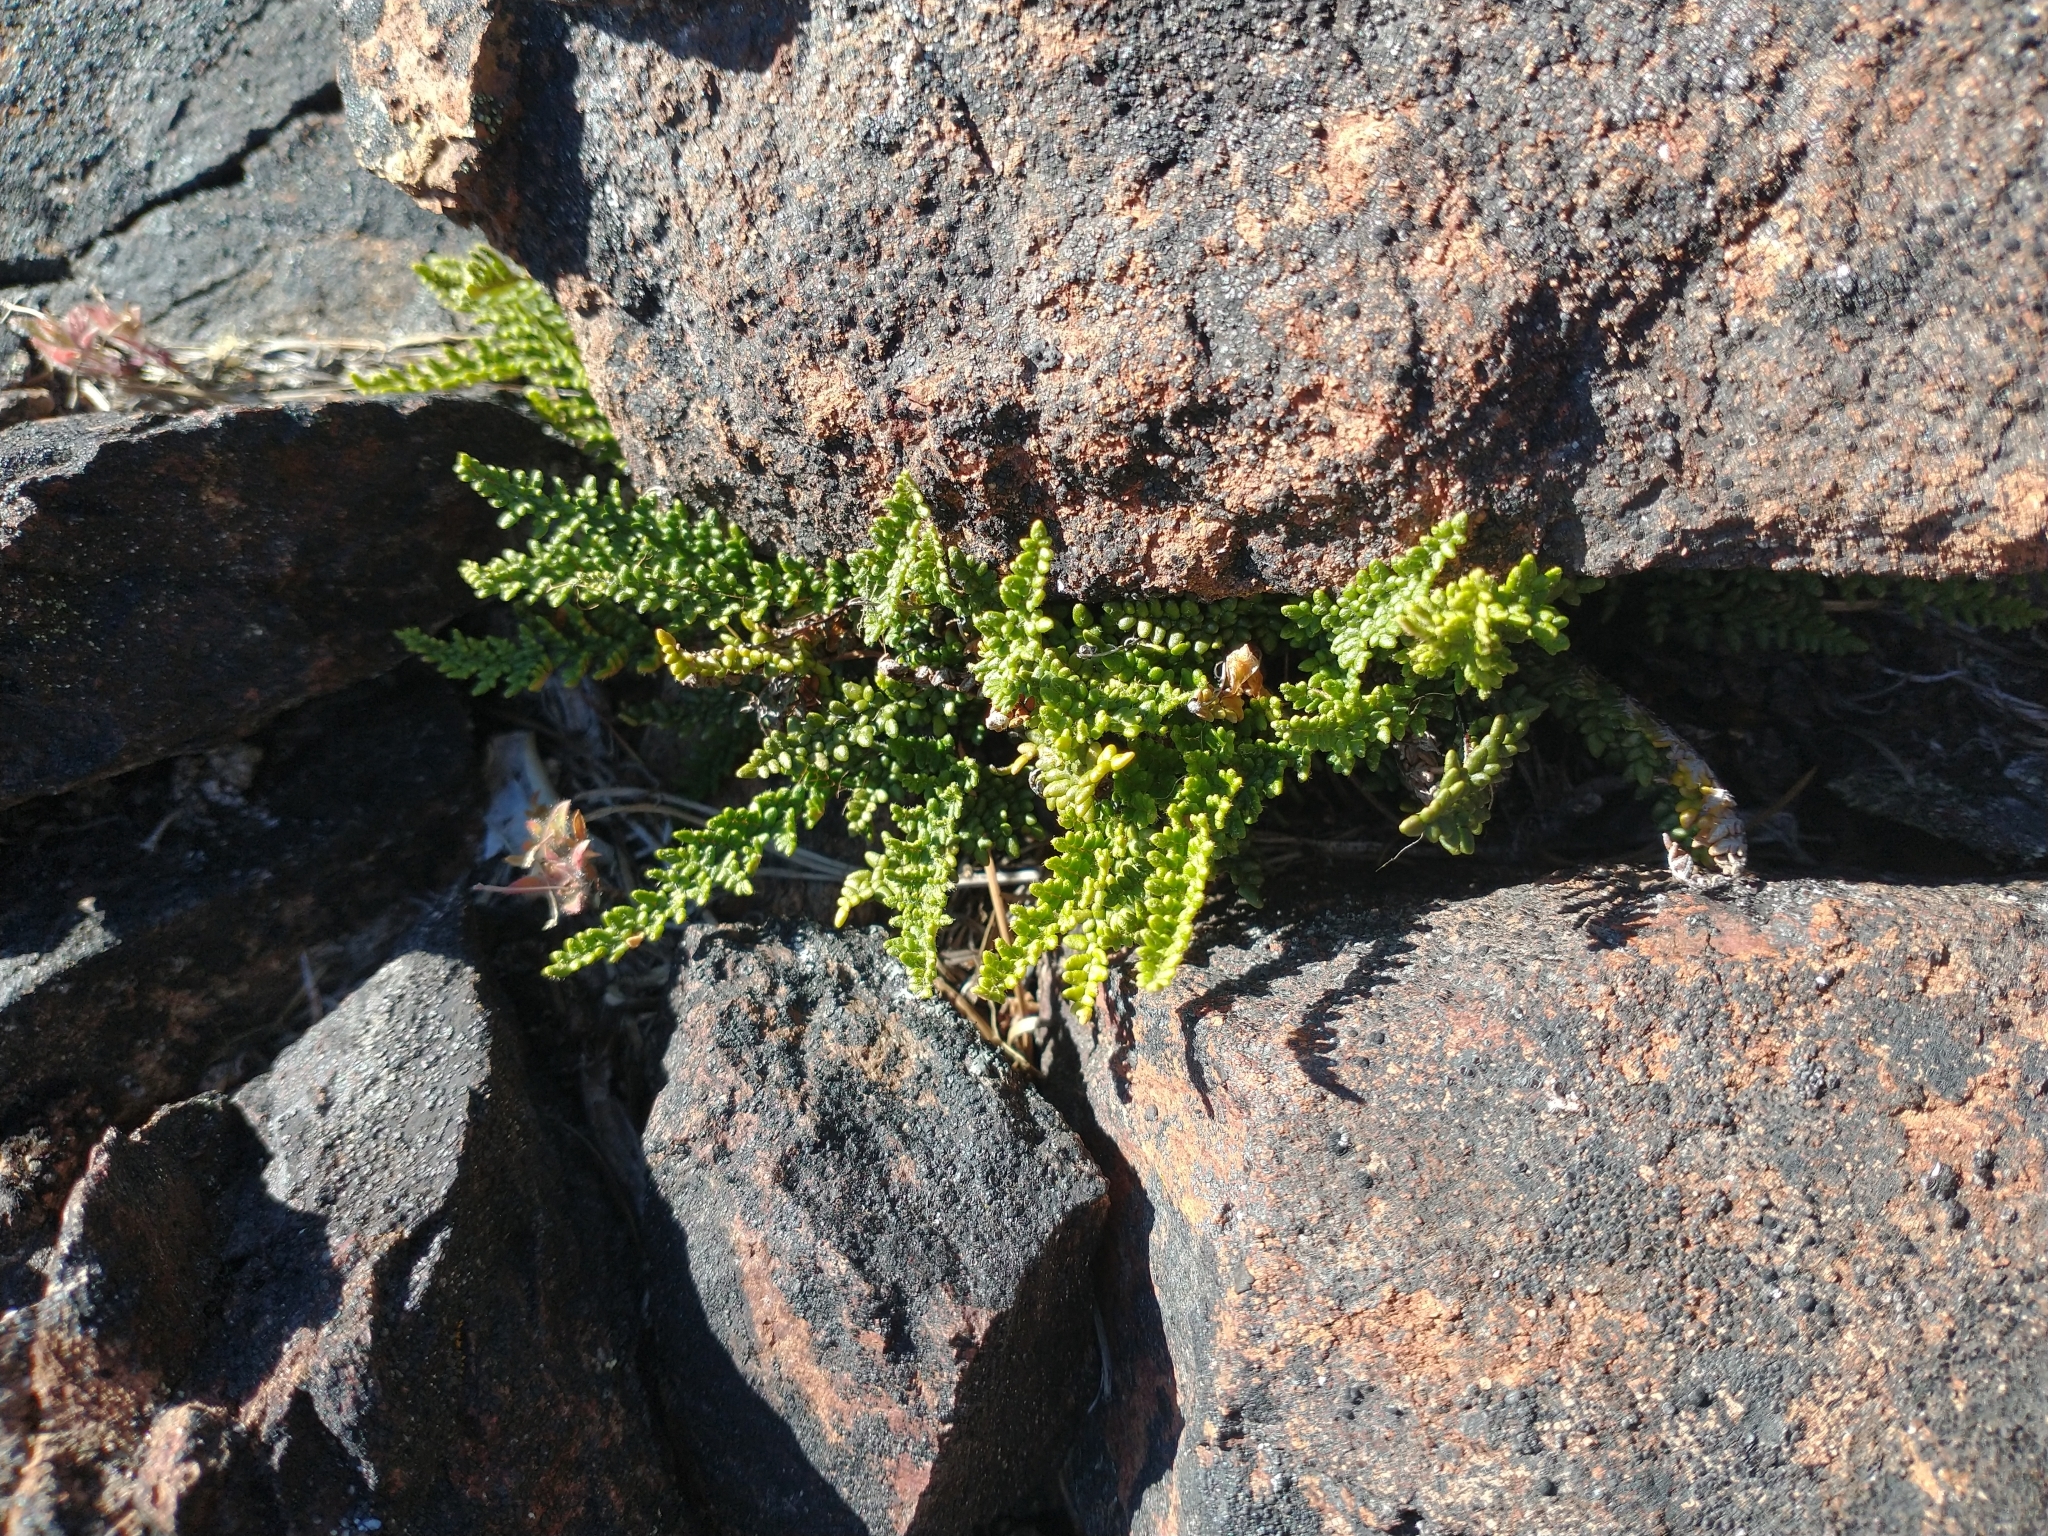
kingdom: Plantae
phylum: Tracheophyta
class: Polypodiopsida
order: Polypodiales
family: Pteridaceae
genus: Myriopteris
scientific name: Myriopteris gracillima
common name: Lace fern
